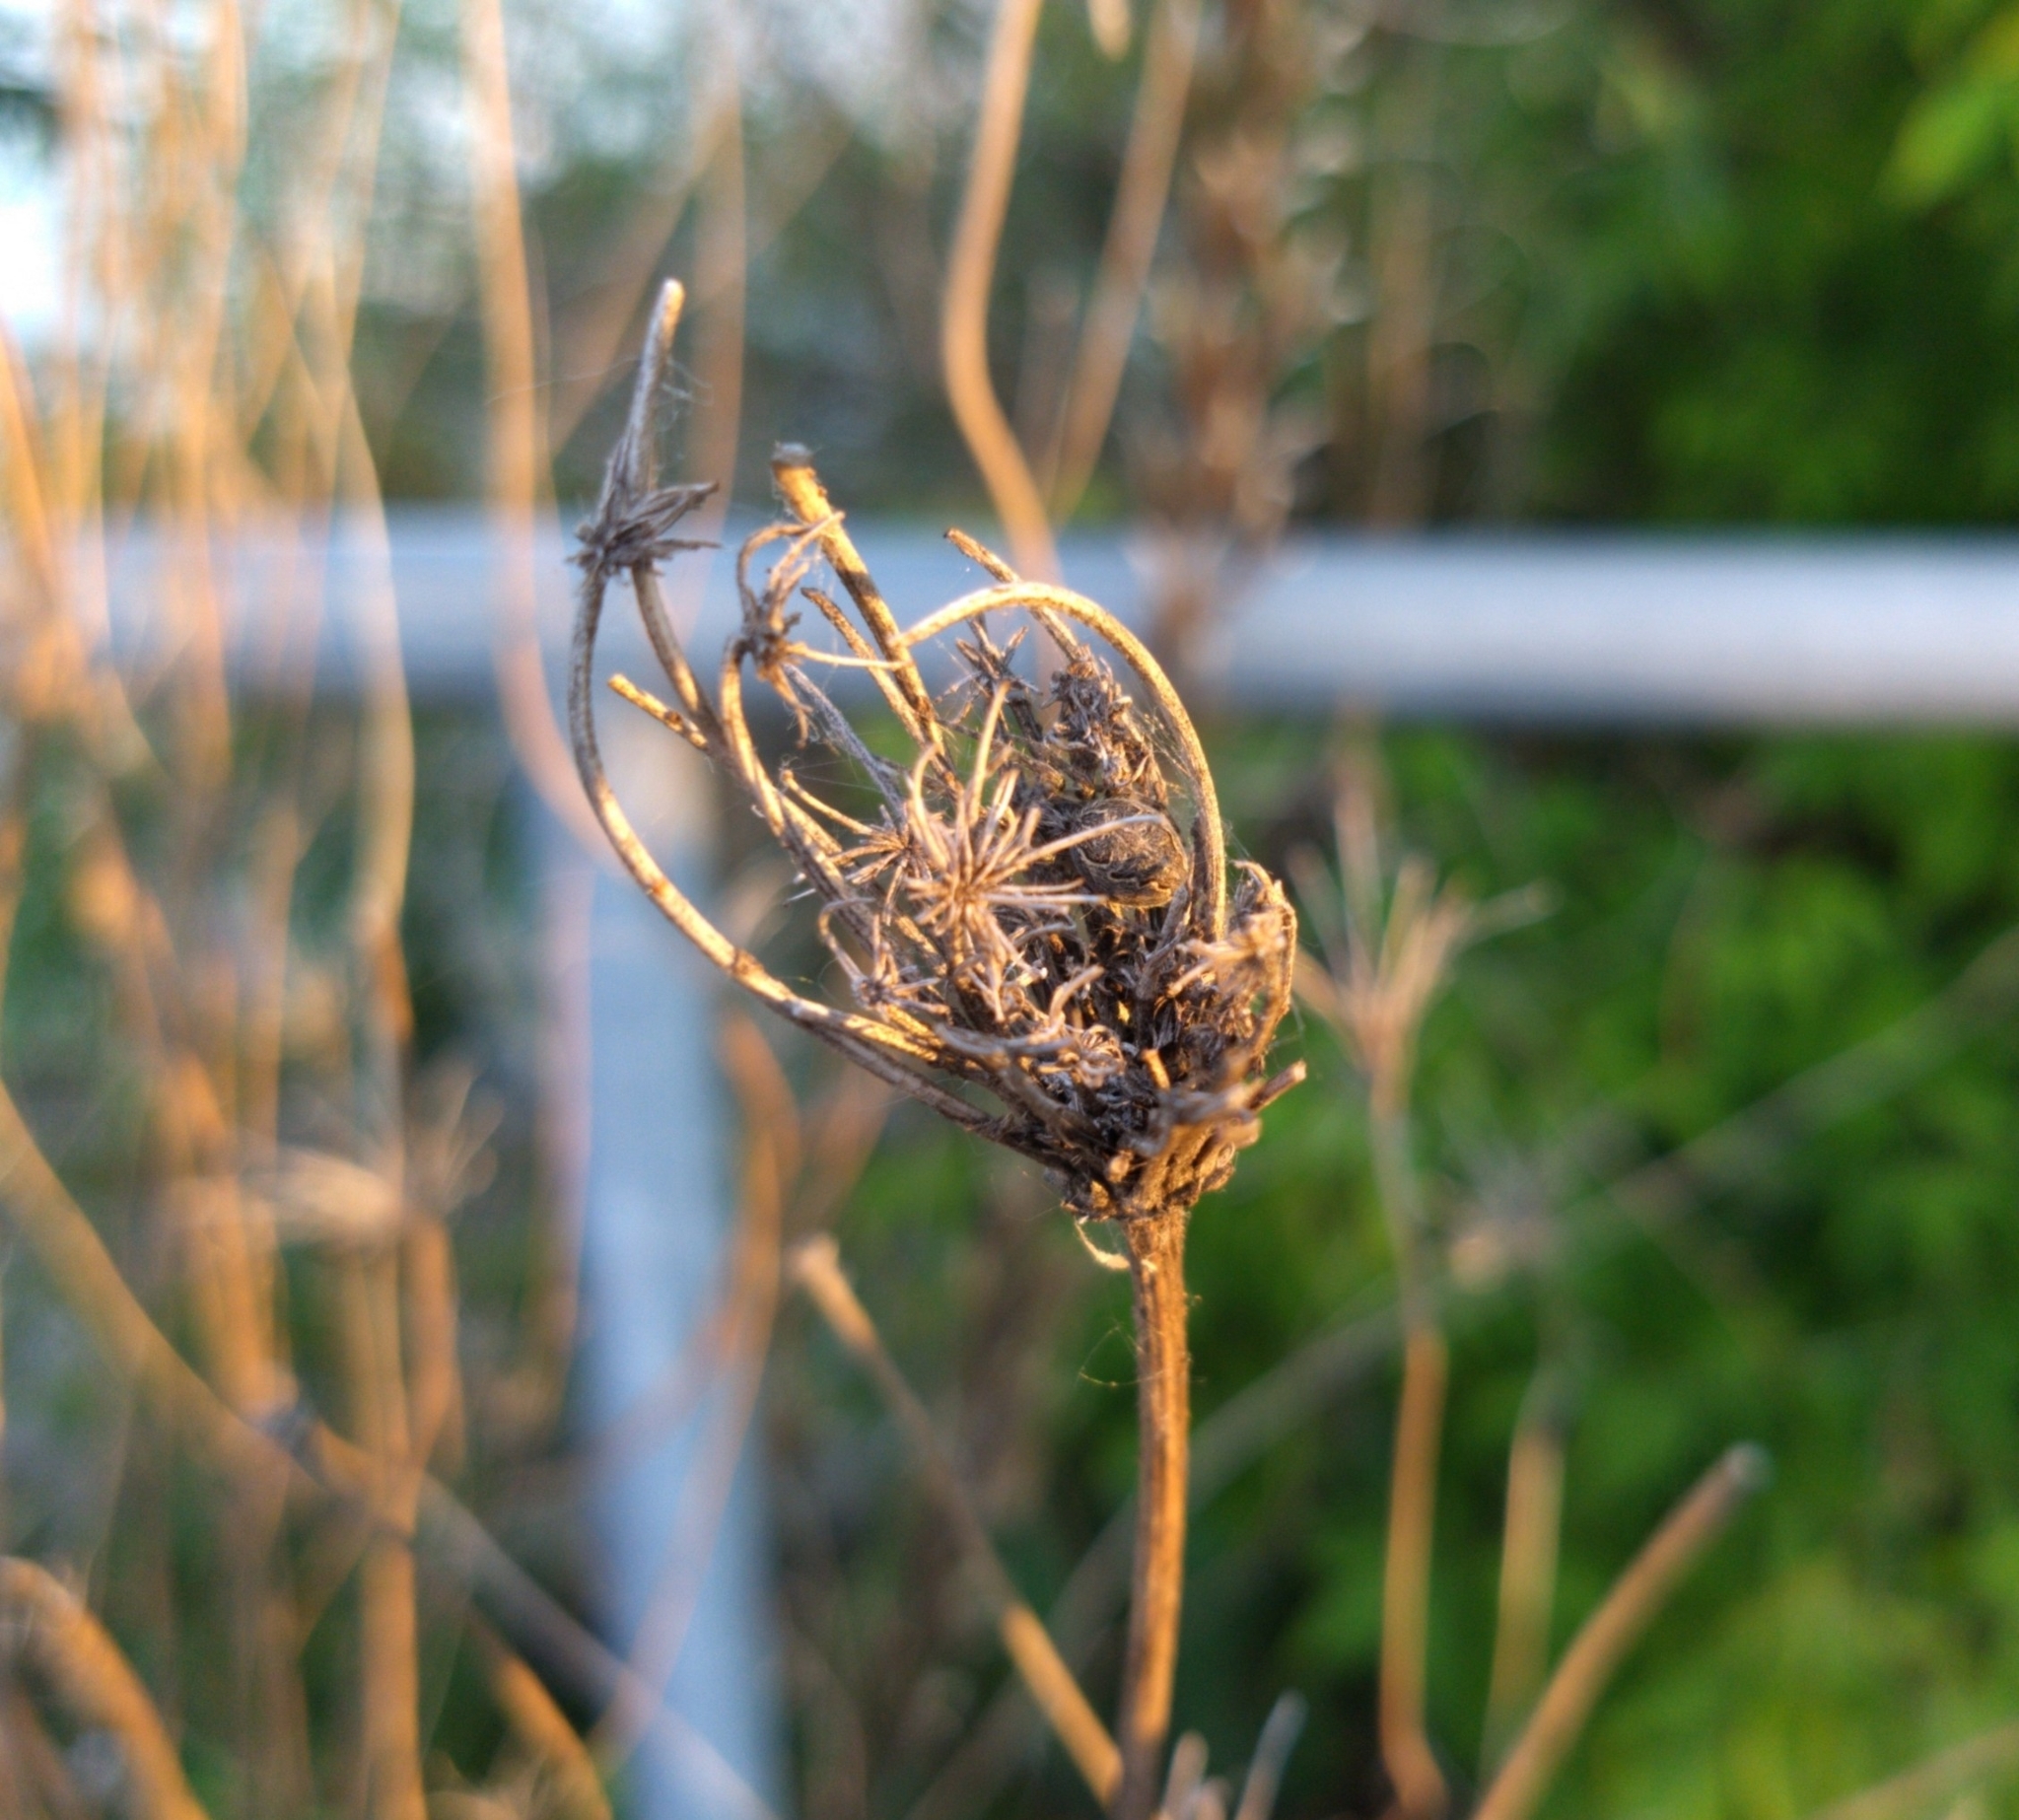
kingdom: Animalia
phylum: Arthropoda
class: Arachnida
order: Araneae
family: Araneidae
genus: Larinioides
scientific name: Larinioides sclopetarius
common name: Bridge orbweaver
